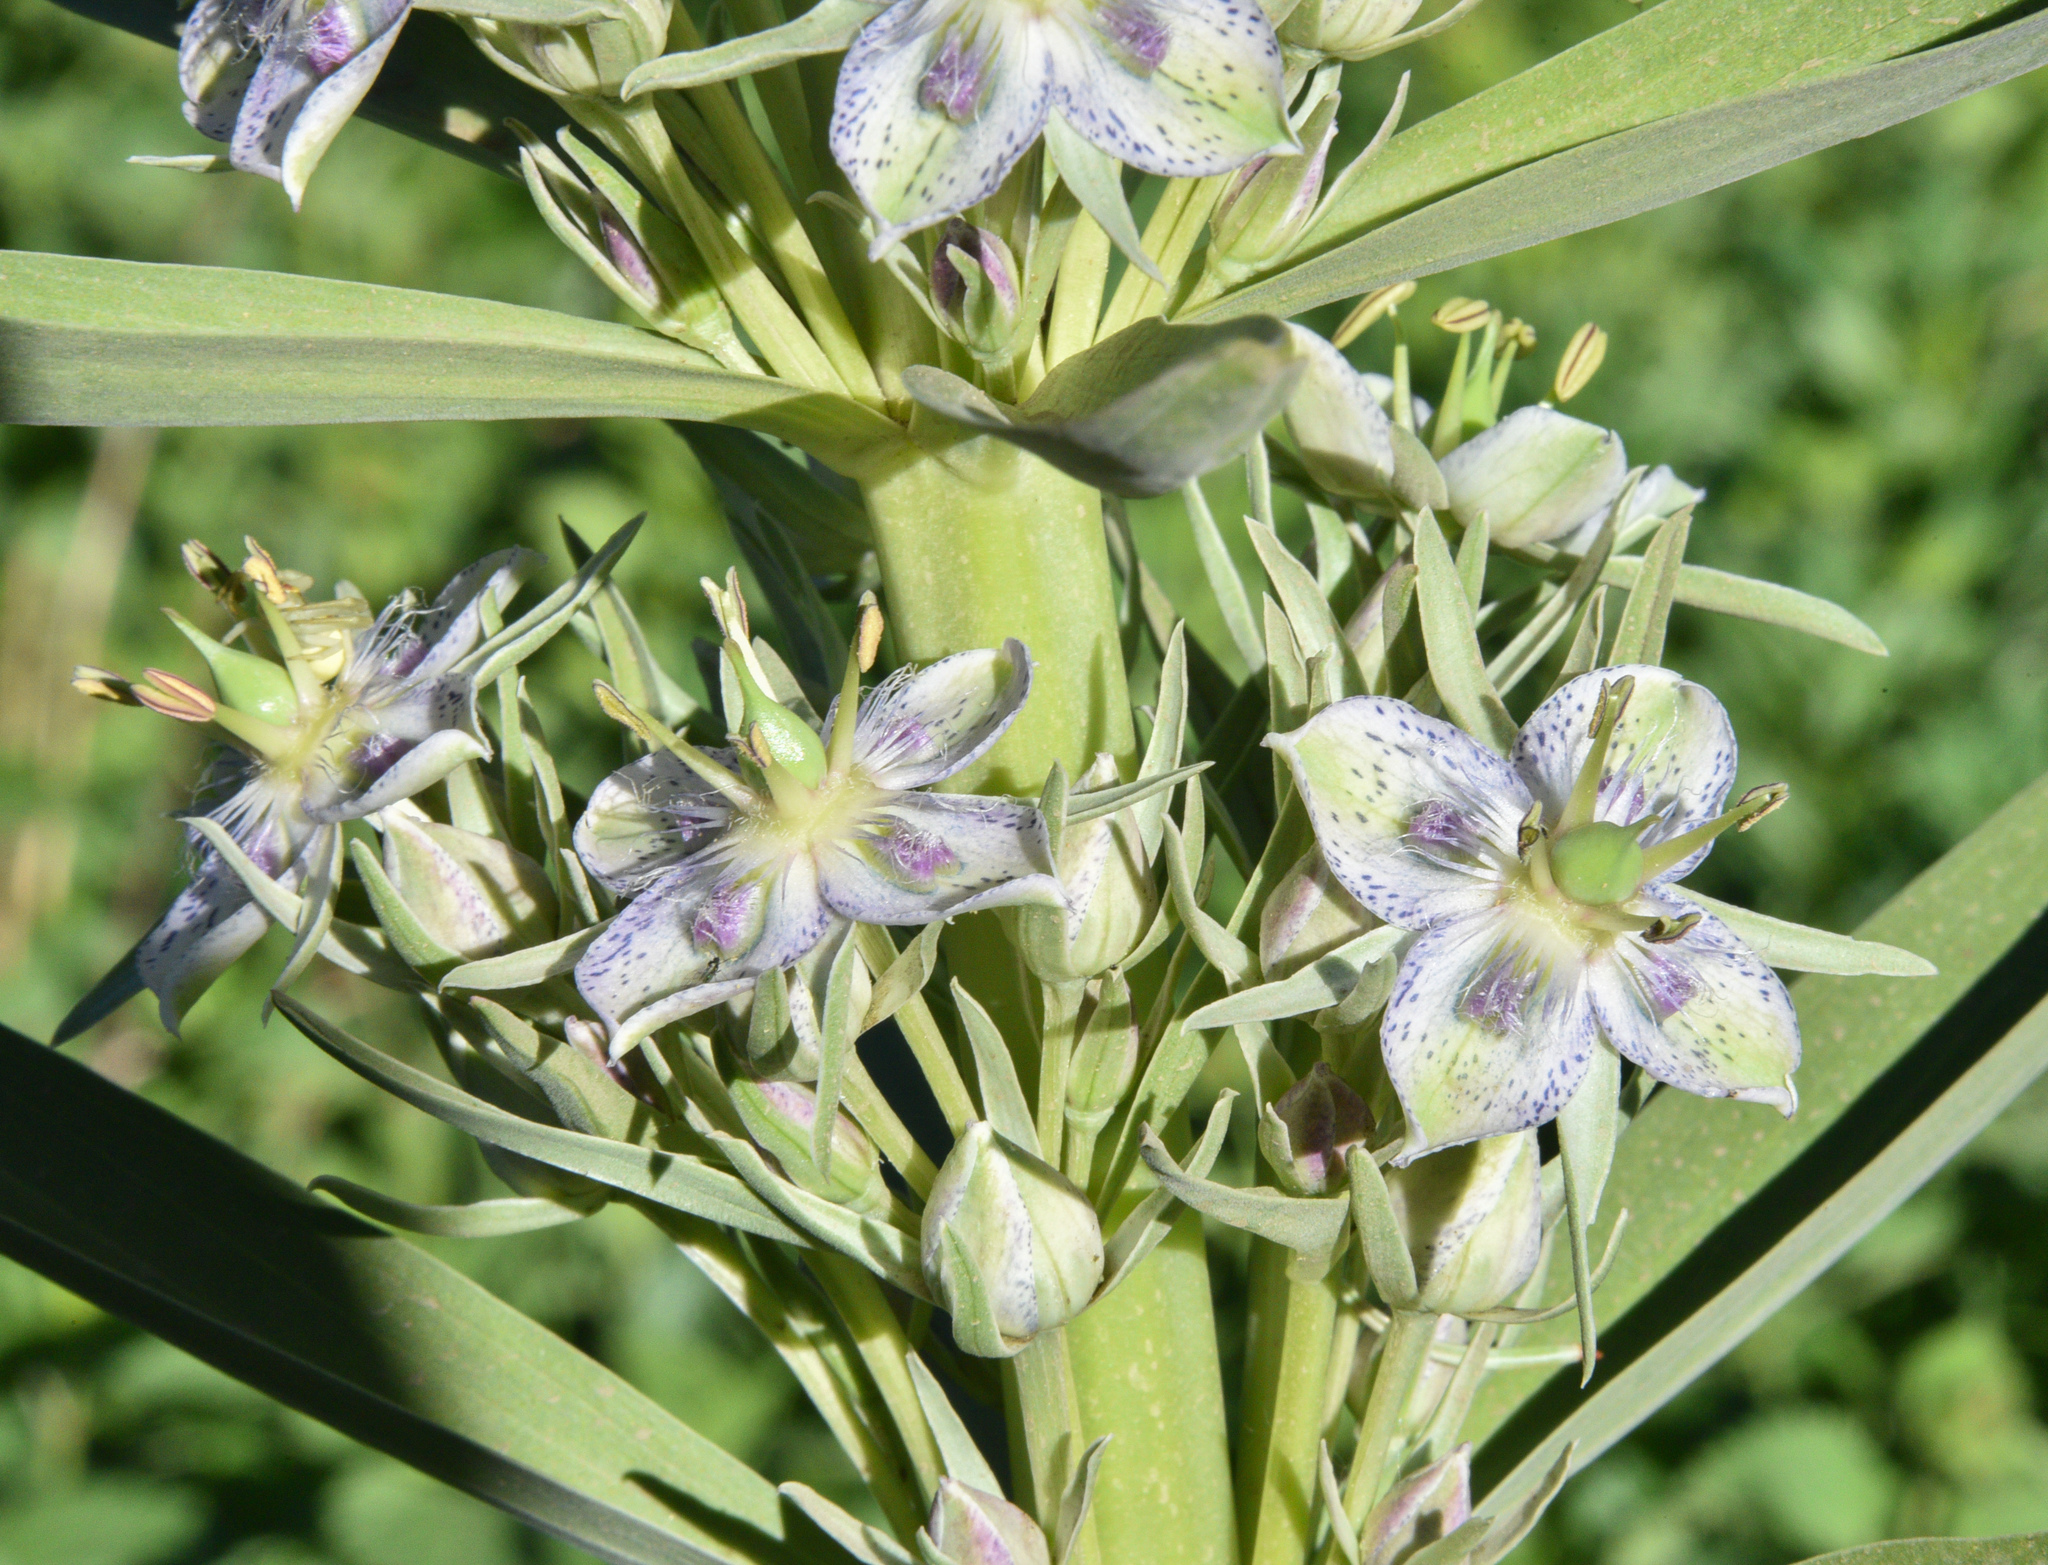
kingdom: Plantae
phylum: Tracheophyta
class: Magnoliopsida
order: Gentianales
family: Gentianaceae
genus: Frasera
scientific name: Frasera speciosa
